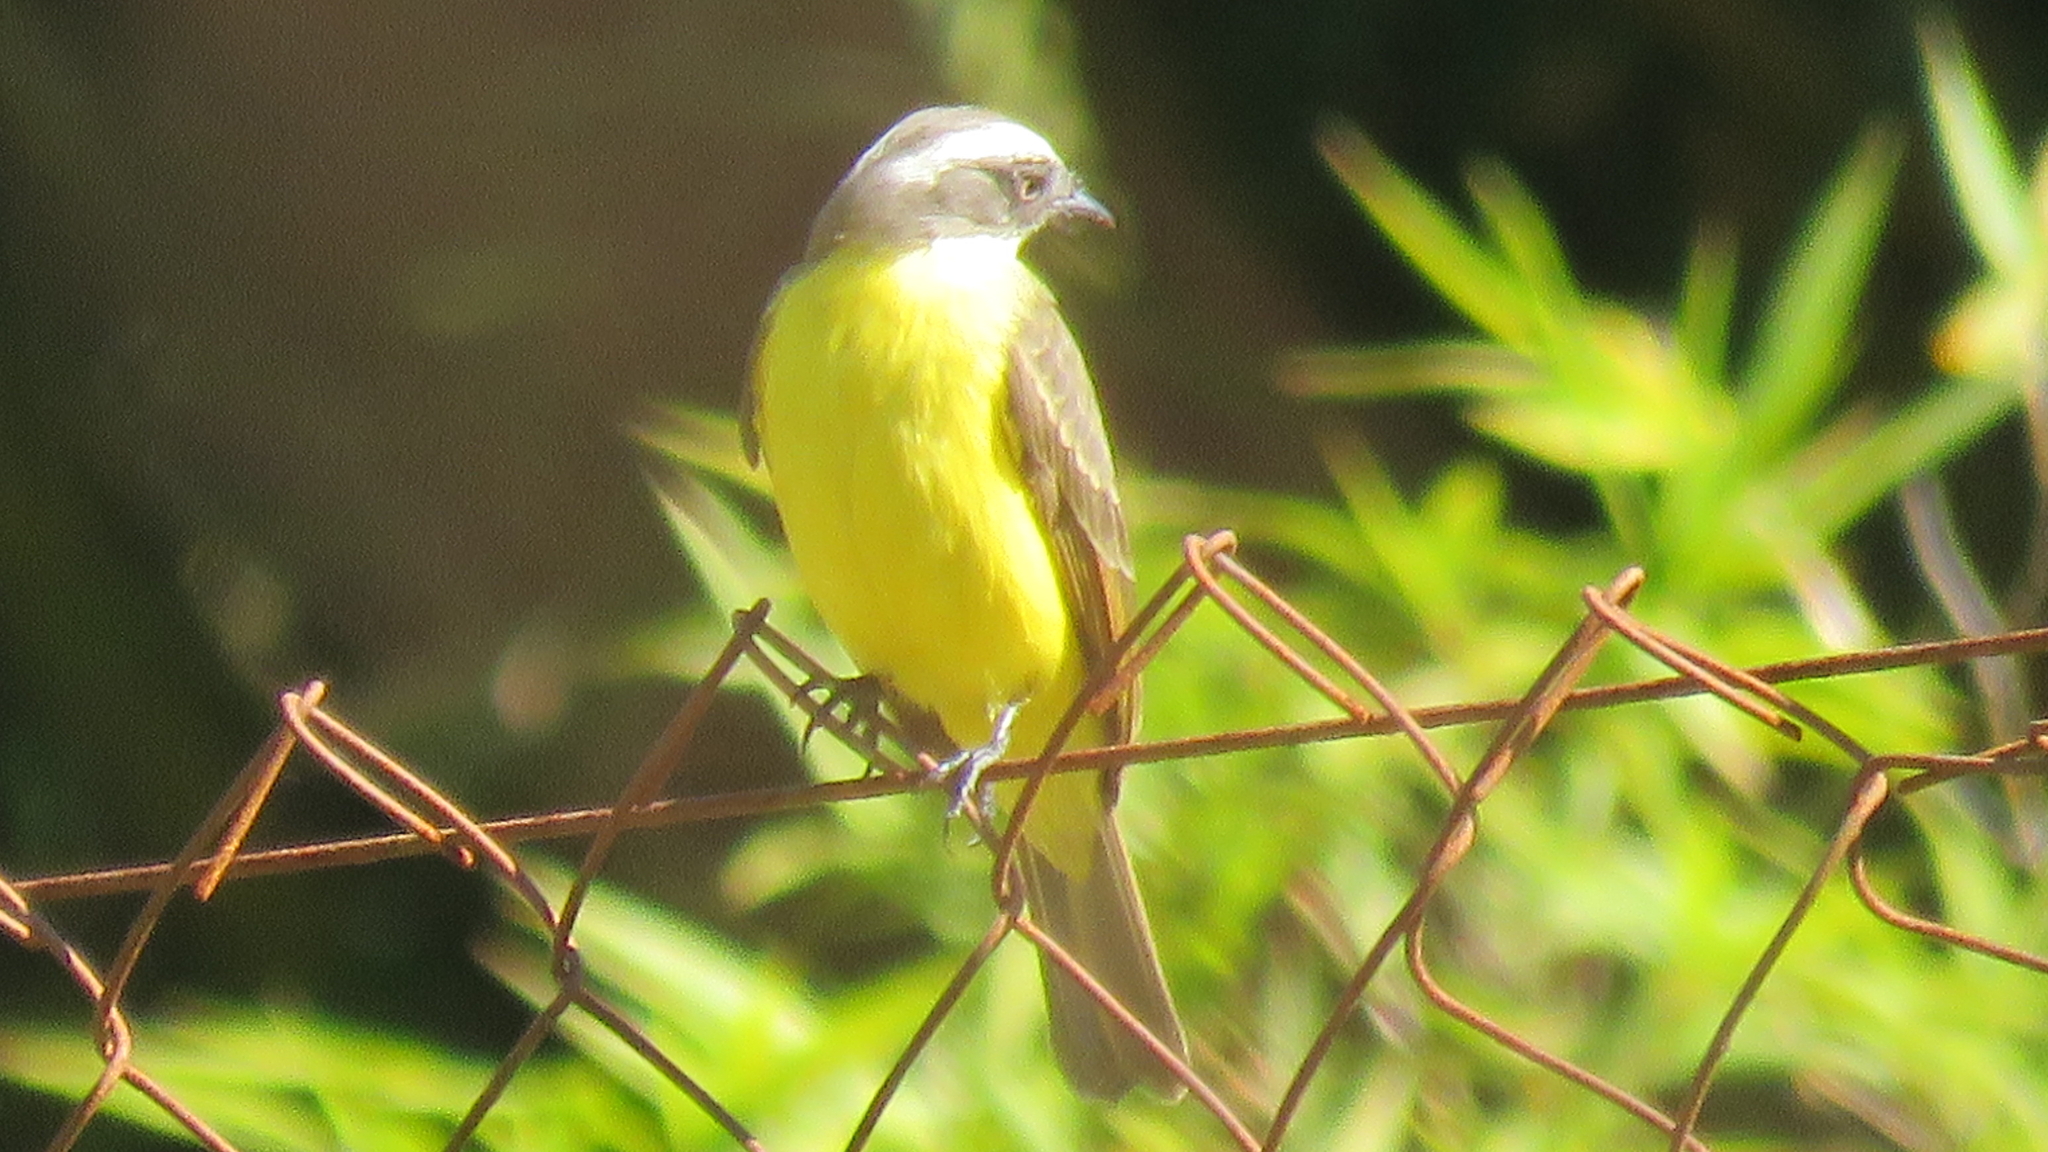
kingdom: Animalia
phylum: Chordata
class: Aves
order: Passeriformes
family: Tyrannidae
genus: Myiozetetes
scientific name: Myiozetetes similis
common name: Social flycatcher
